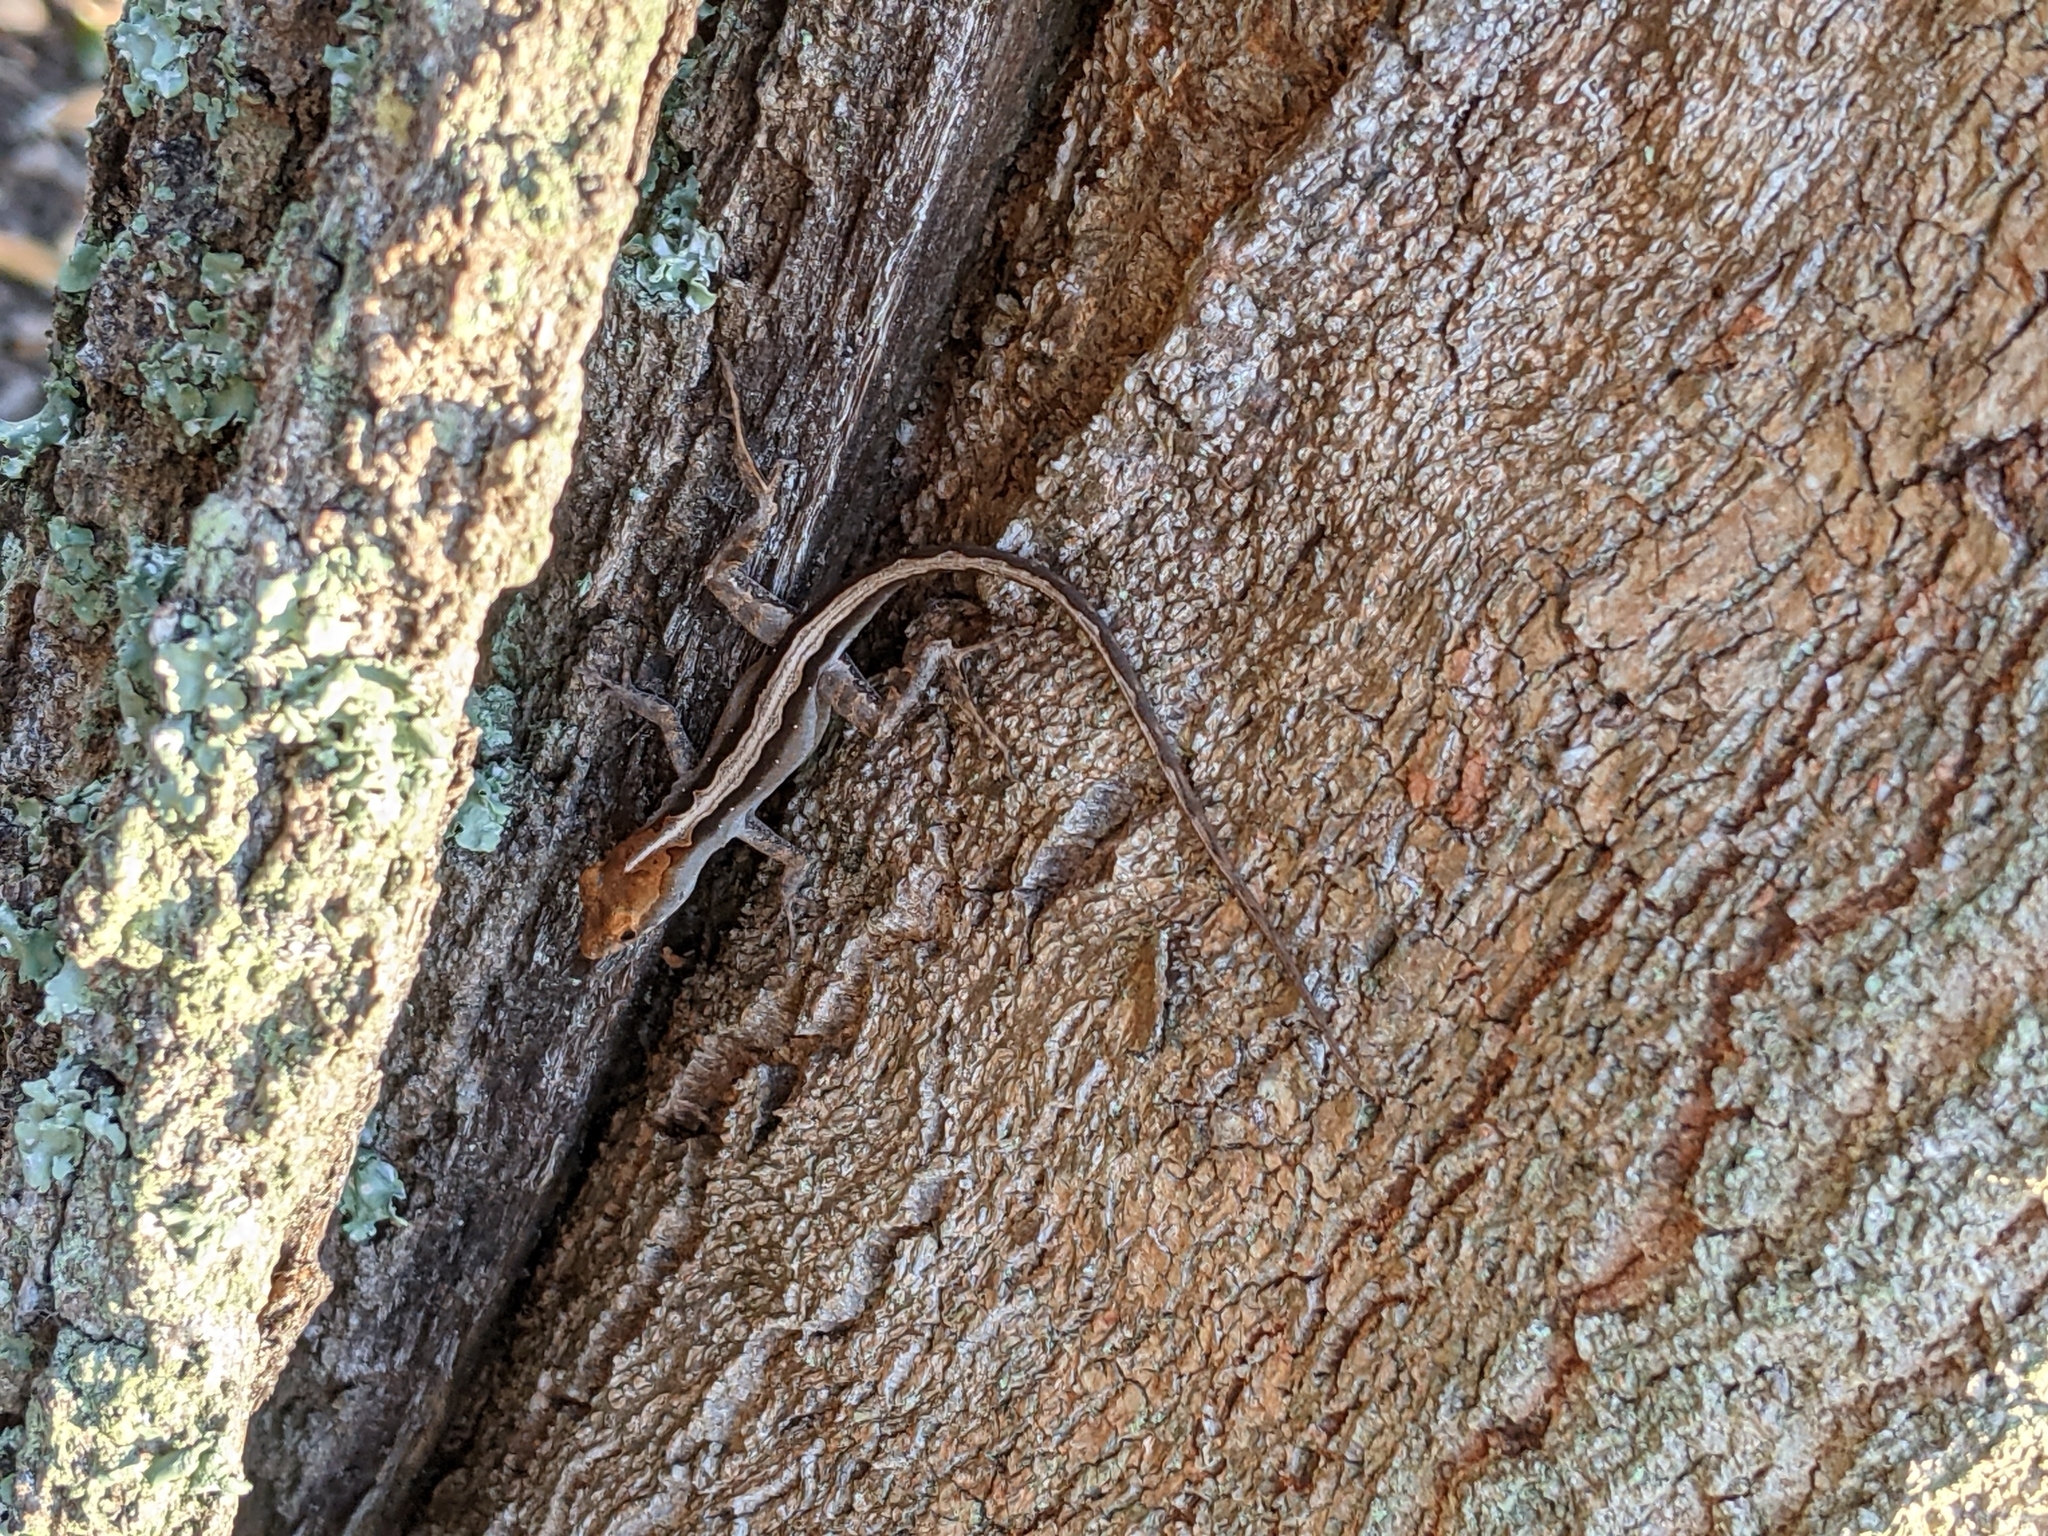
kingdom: Animalia
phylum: Chordata
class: Squamata
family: Dactyloidae
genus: Anolis
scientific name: Anolis sagrei
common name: Brown anole
